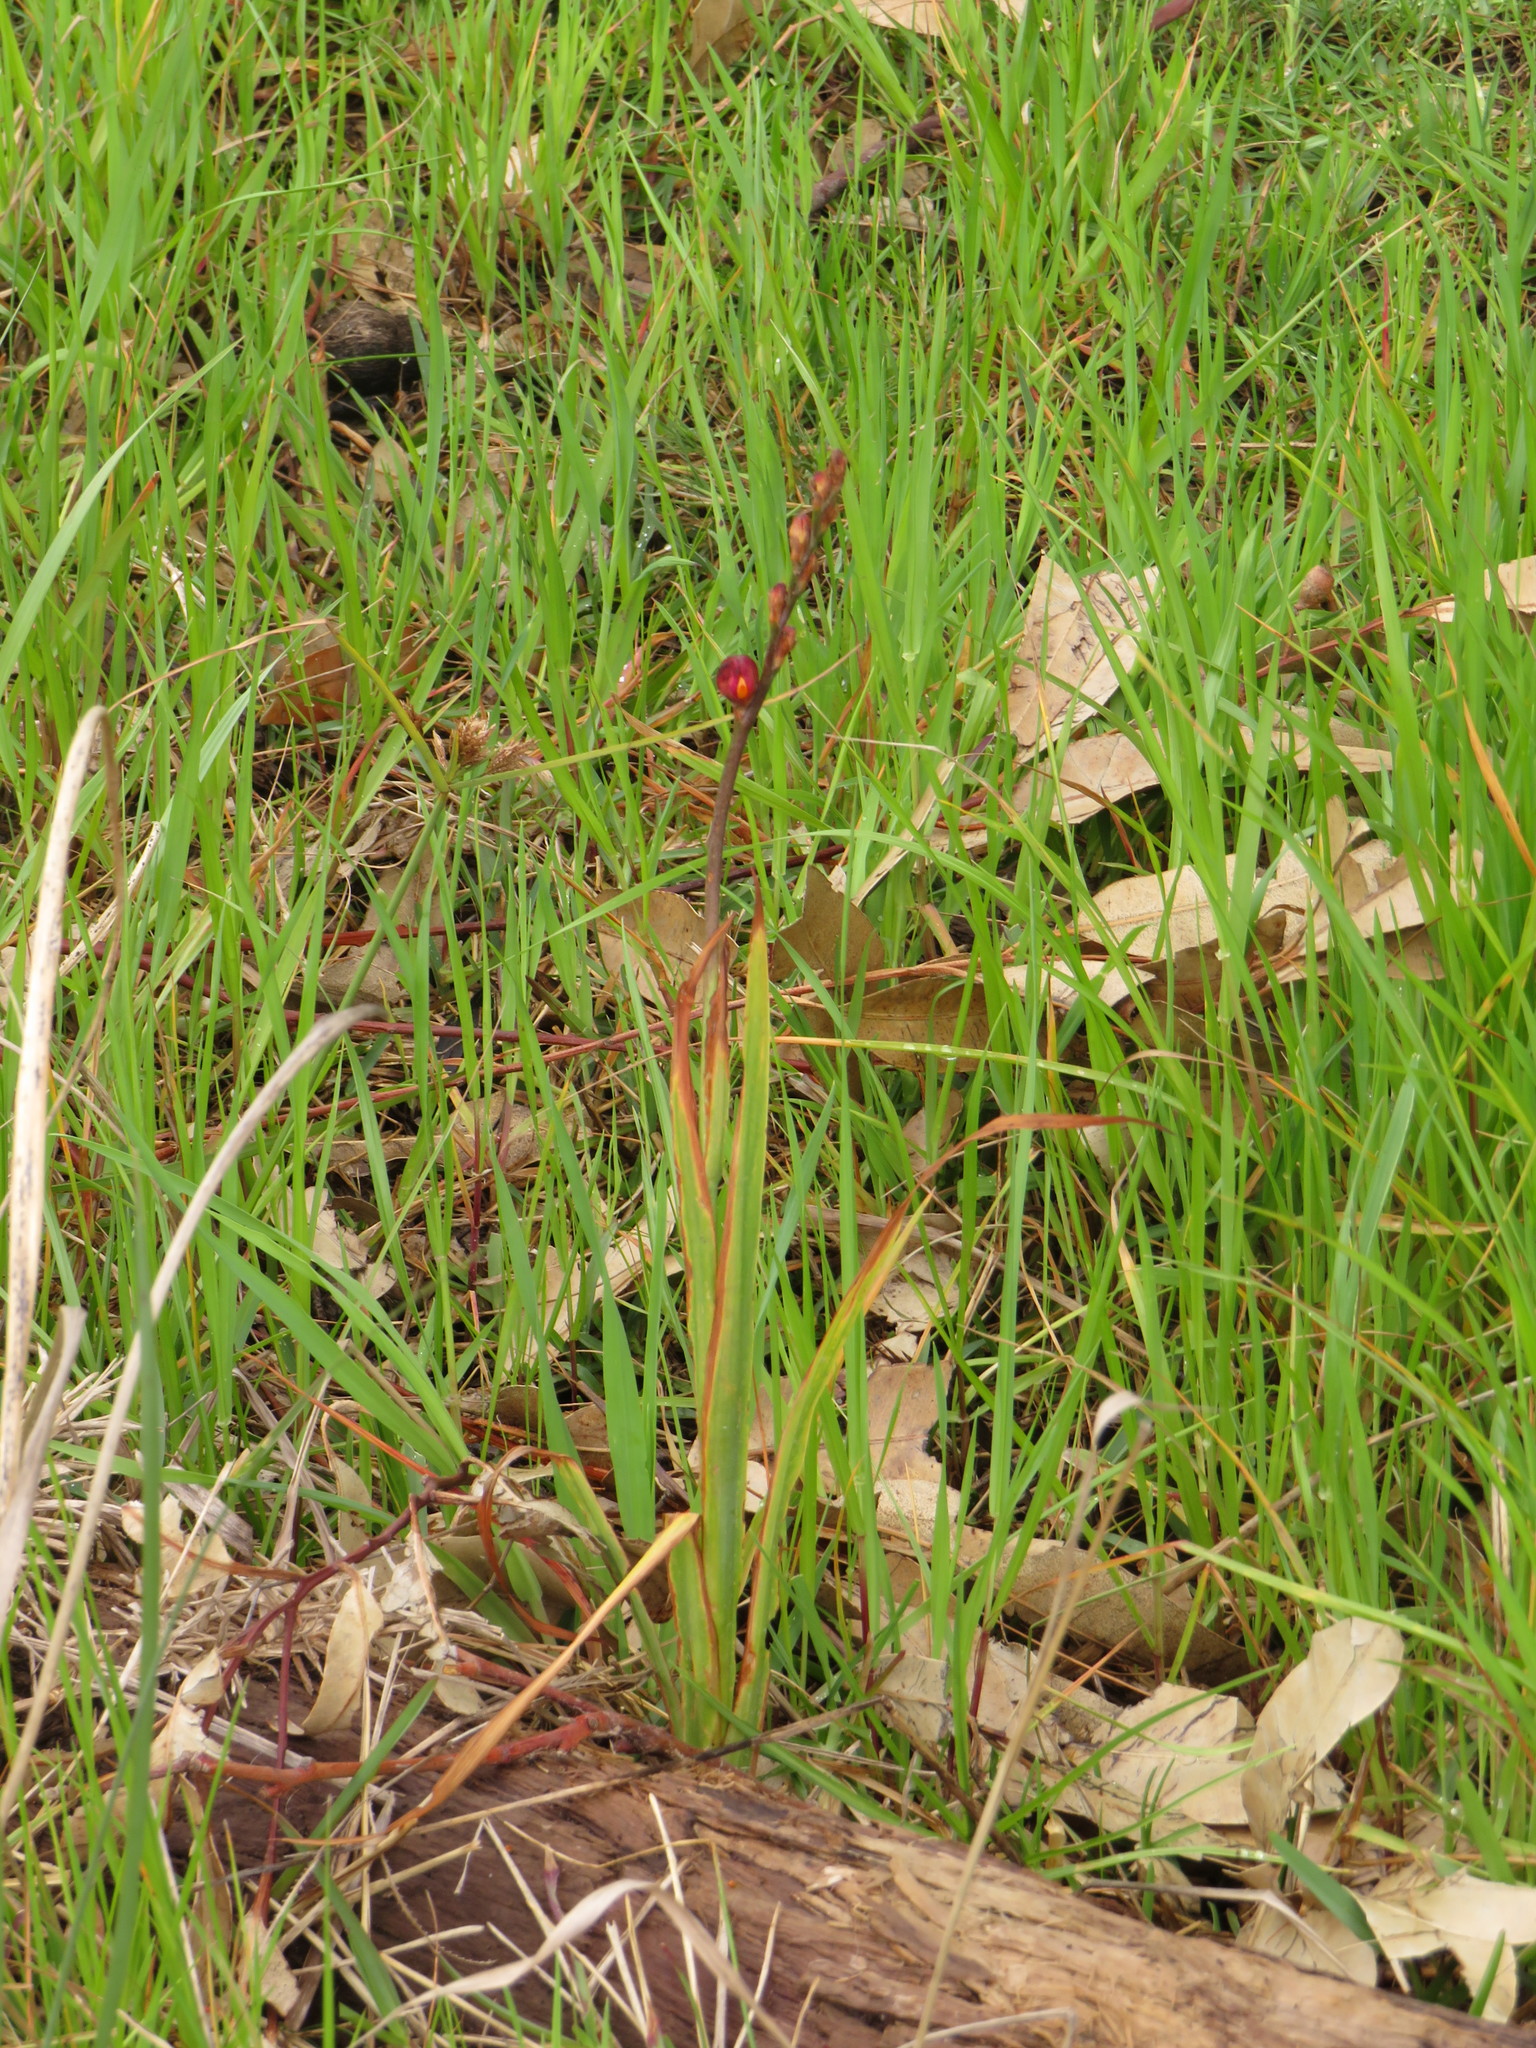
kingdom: Plantae
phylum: Tracheophyta
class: Liliopsida
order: Asparagales
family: Iridaceae
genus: Chasmanthe
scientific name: Chasmanthe aethiopica
